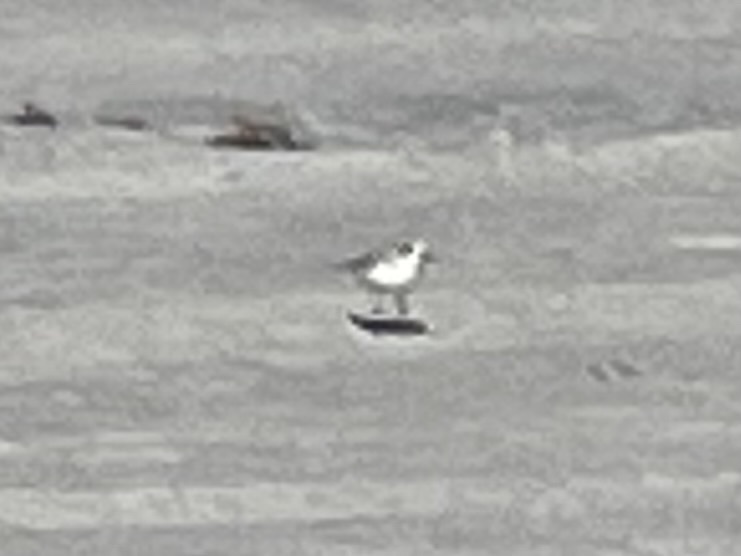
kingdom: Animalia
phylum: Chordata
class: Aves
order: Charadriiformes
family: Charadriidae
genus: Anarhynchus
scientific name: Anarhynchus
